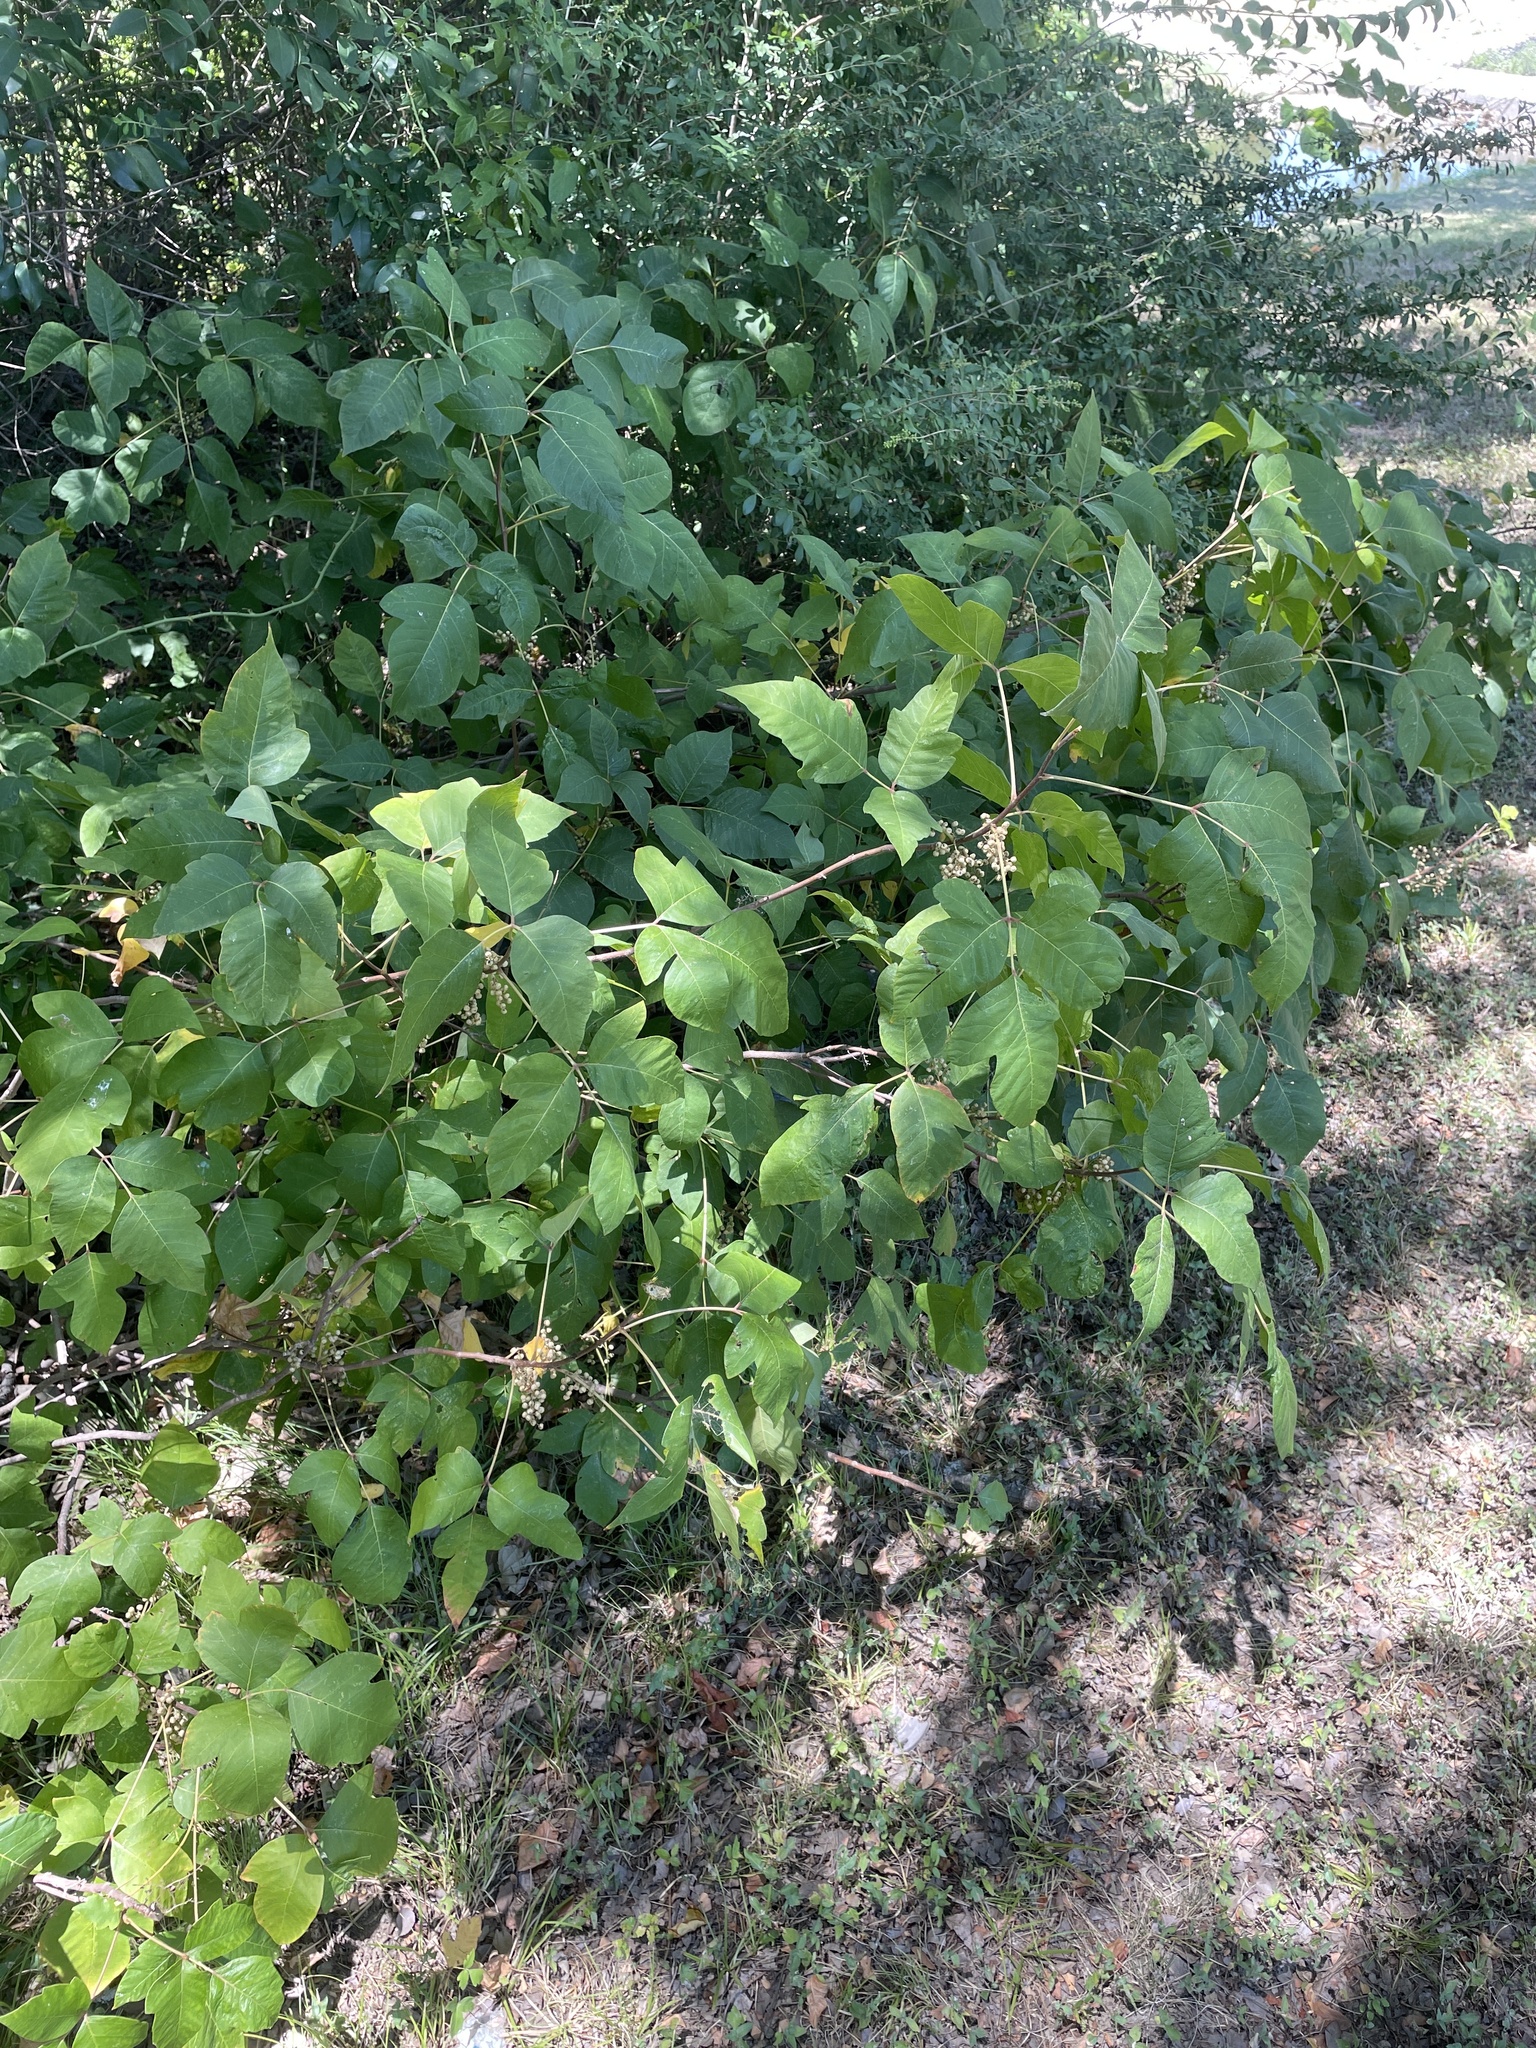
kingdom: Plantae
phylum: Tracheophyta
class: Magnoliopsida
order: Sapindales
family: Anacardiaceae
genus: Toxicodendron
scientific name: Toxicodendron radicans
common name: Poison ivy
